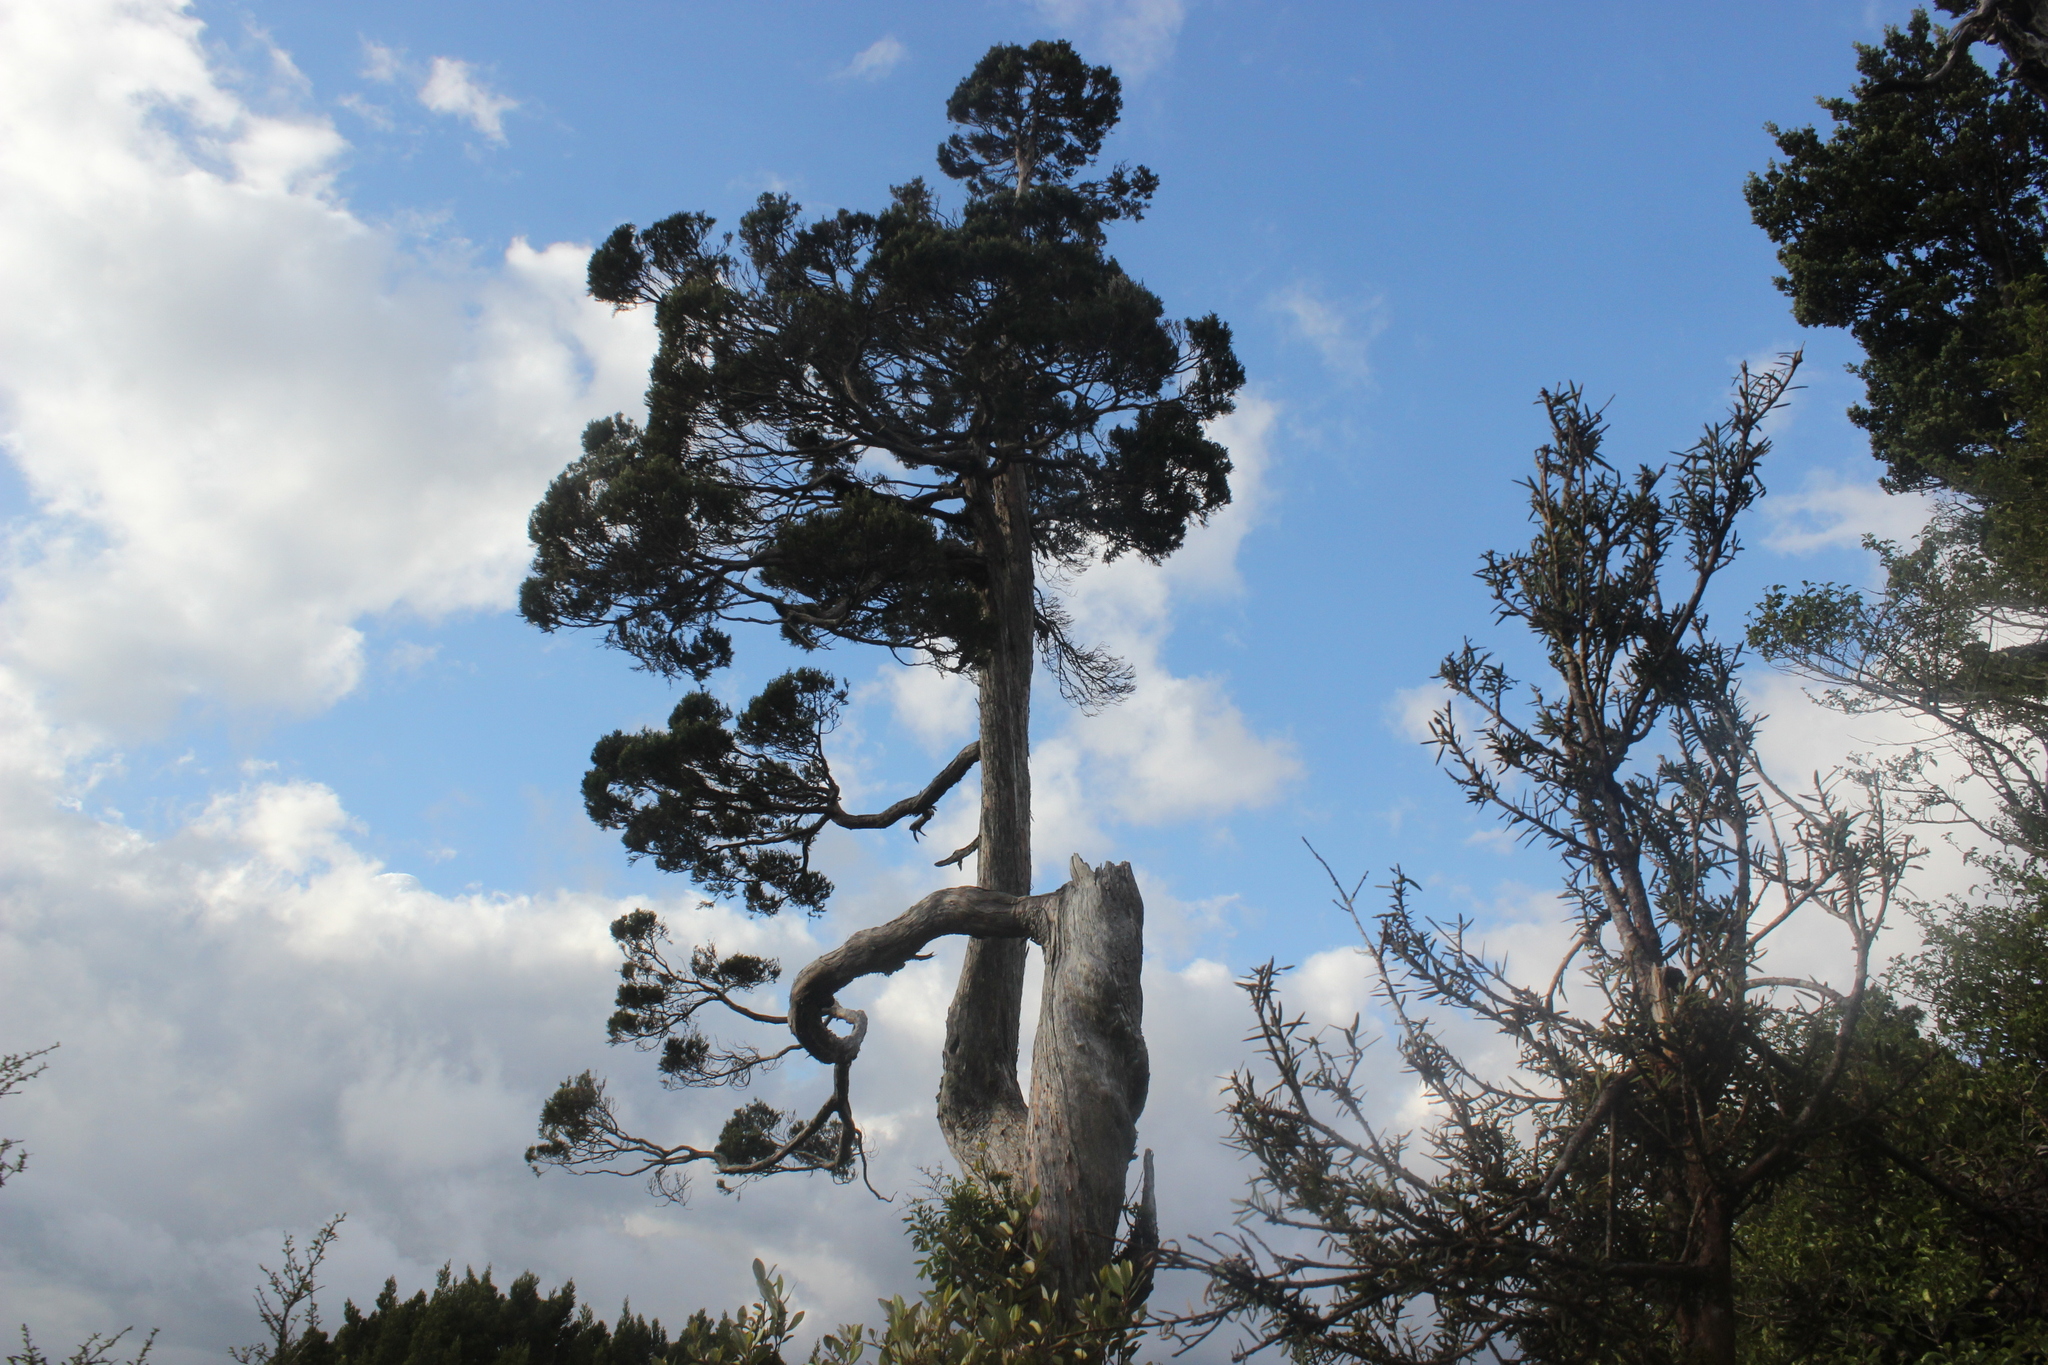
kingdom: Plantae
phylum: Tracheophyta
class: Pinopsida
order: Pinales
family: Cupressaceae
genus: Libocedrus
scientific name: Libocedrus bidwillii
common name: Cedar
